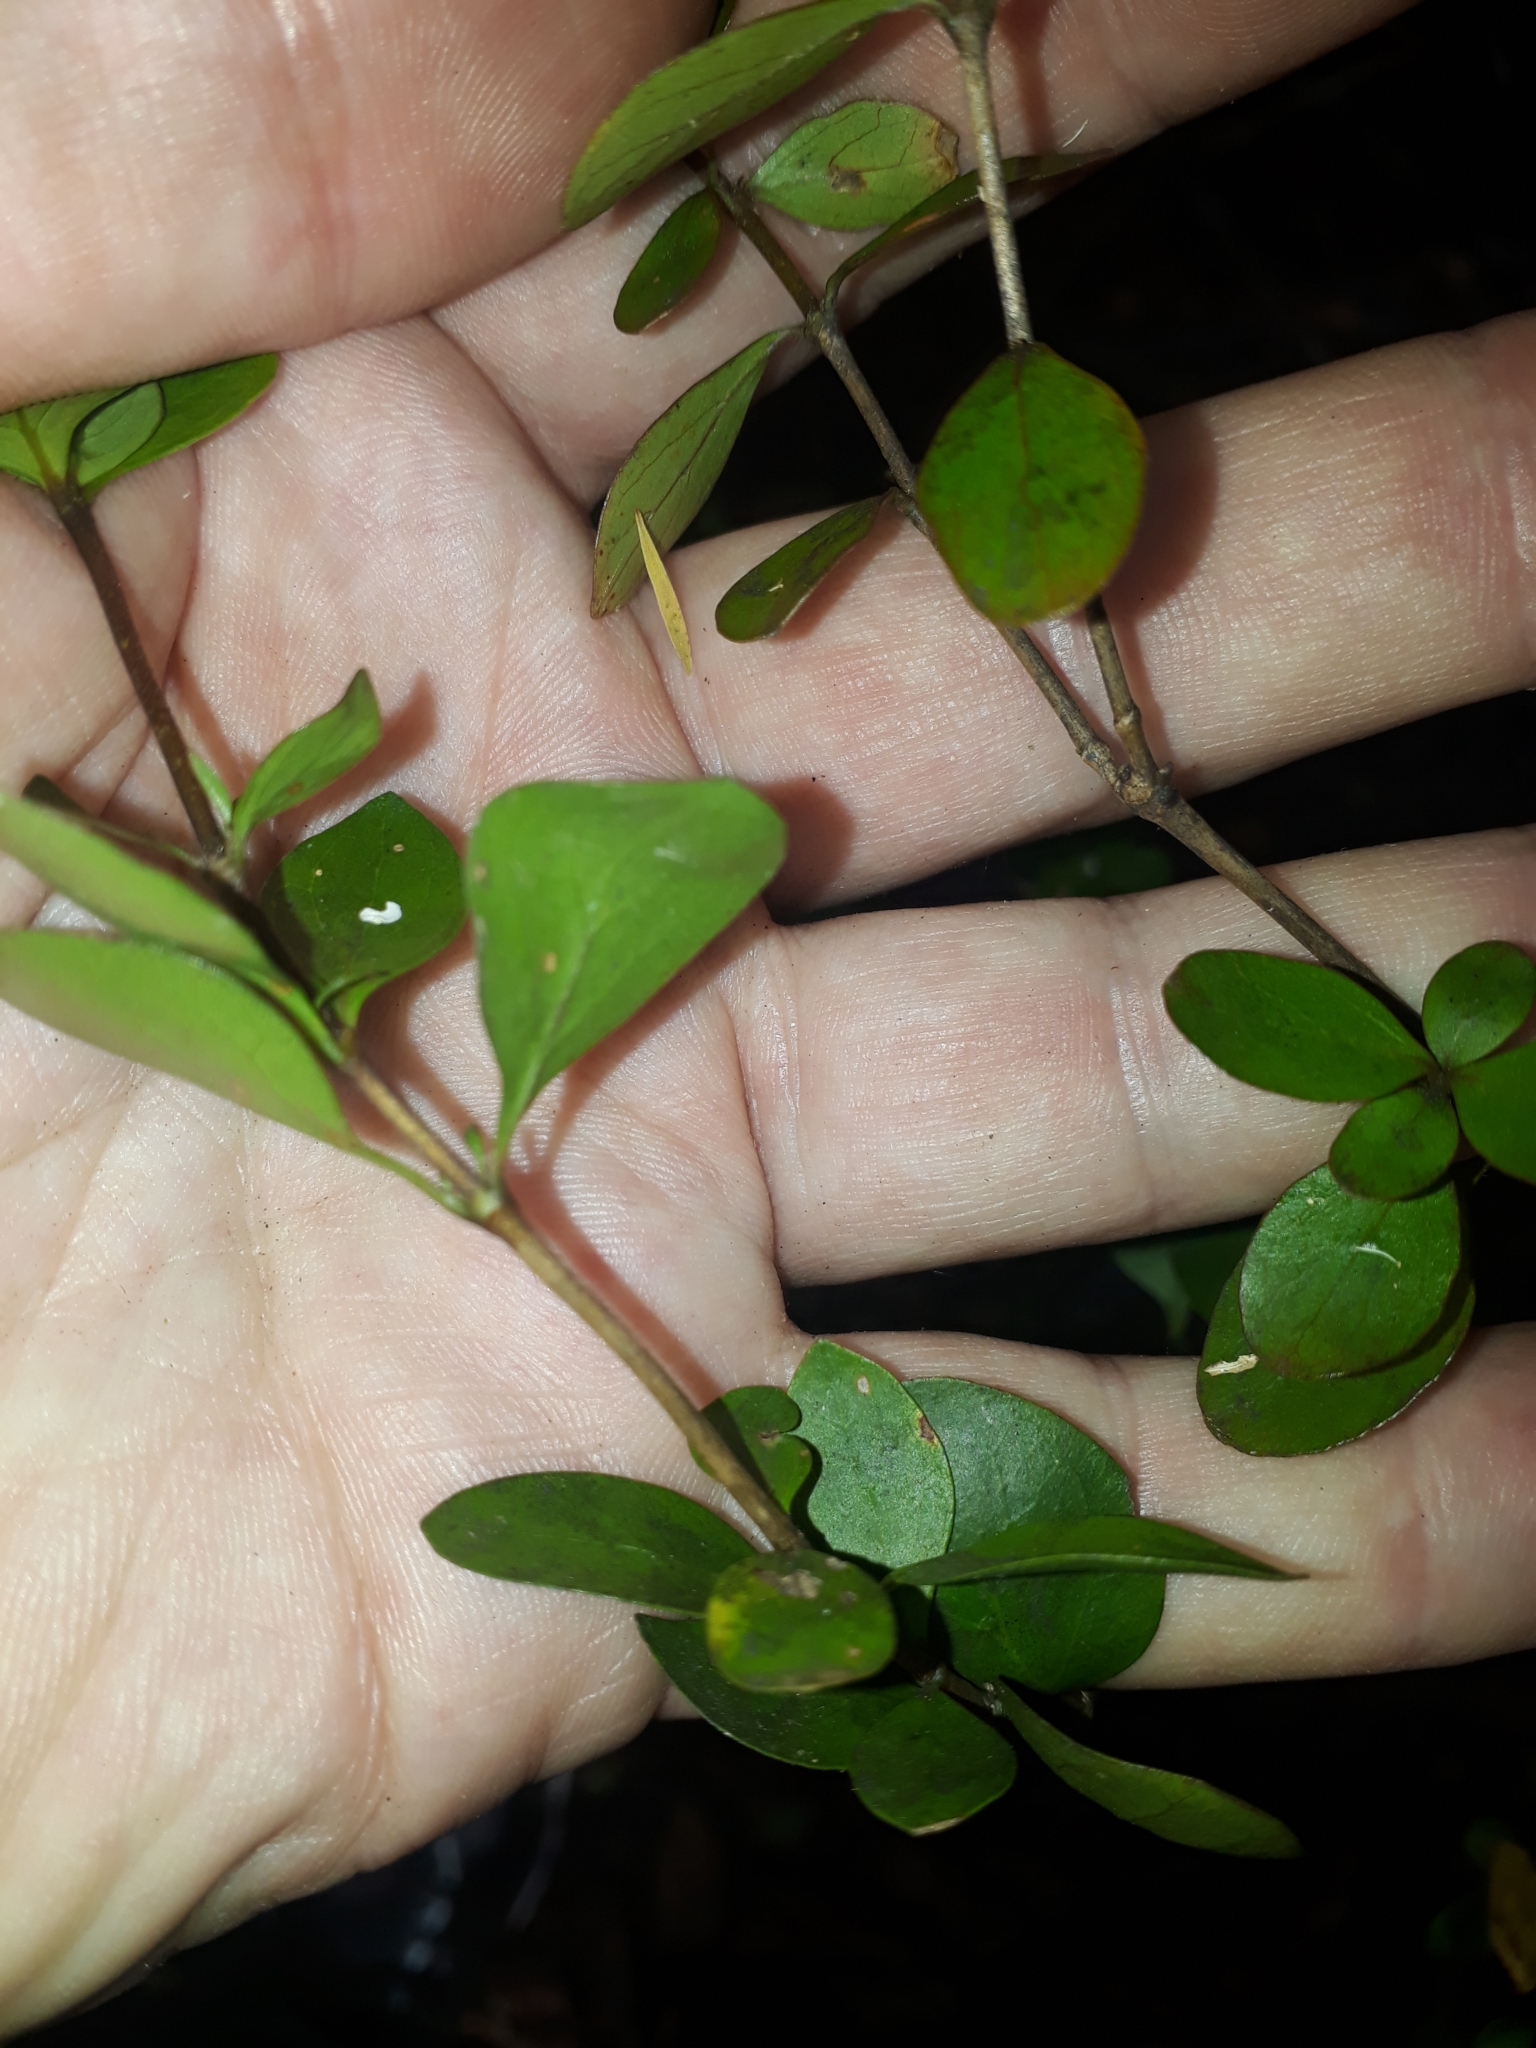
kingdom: Plantae
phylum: Tracheophyta
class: Magnoliopsida
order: Gentianales
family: Rubiaceae
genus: Coprosma
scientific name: Coprosma neglecta
